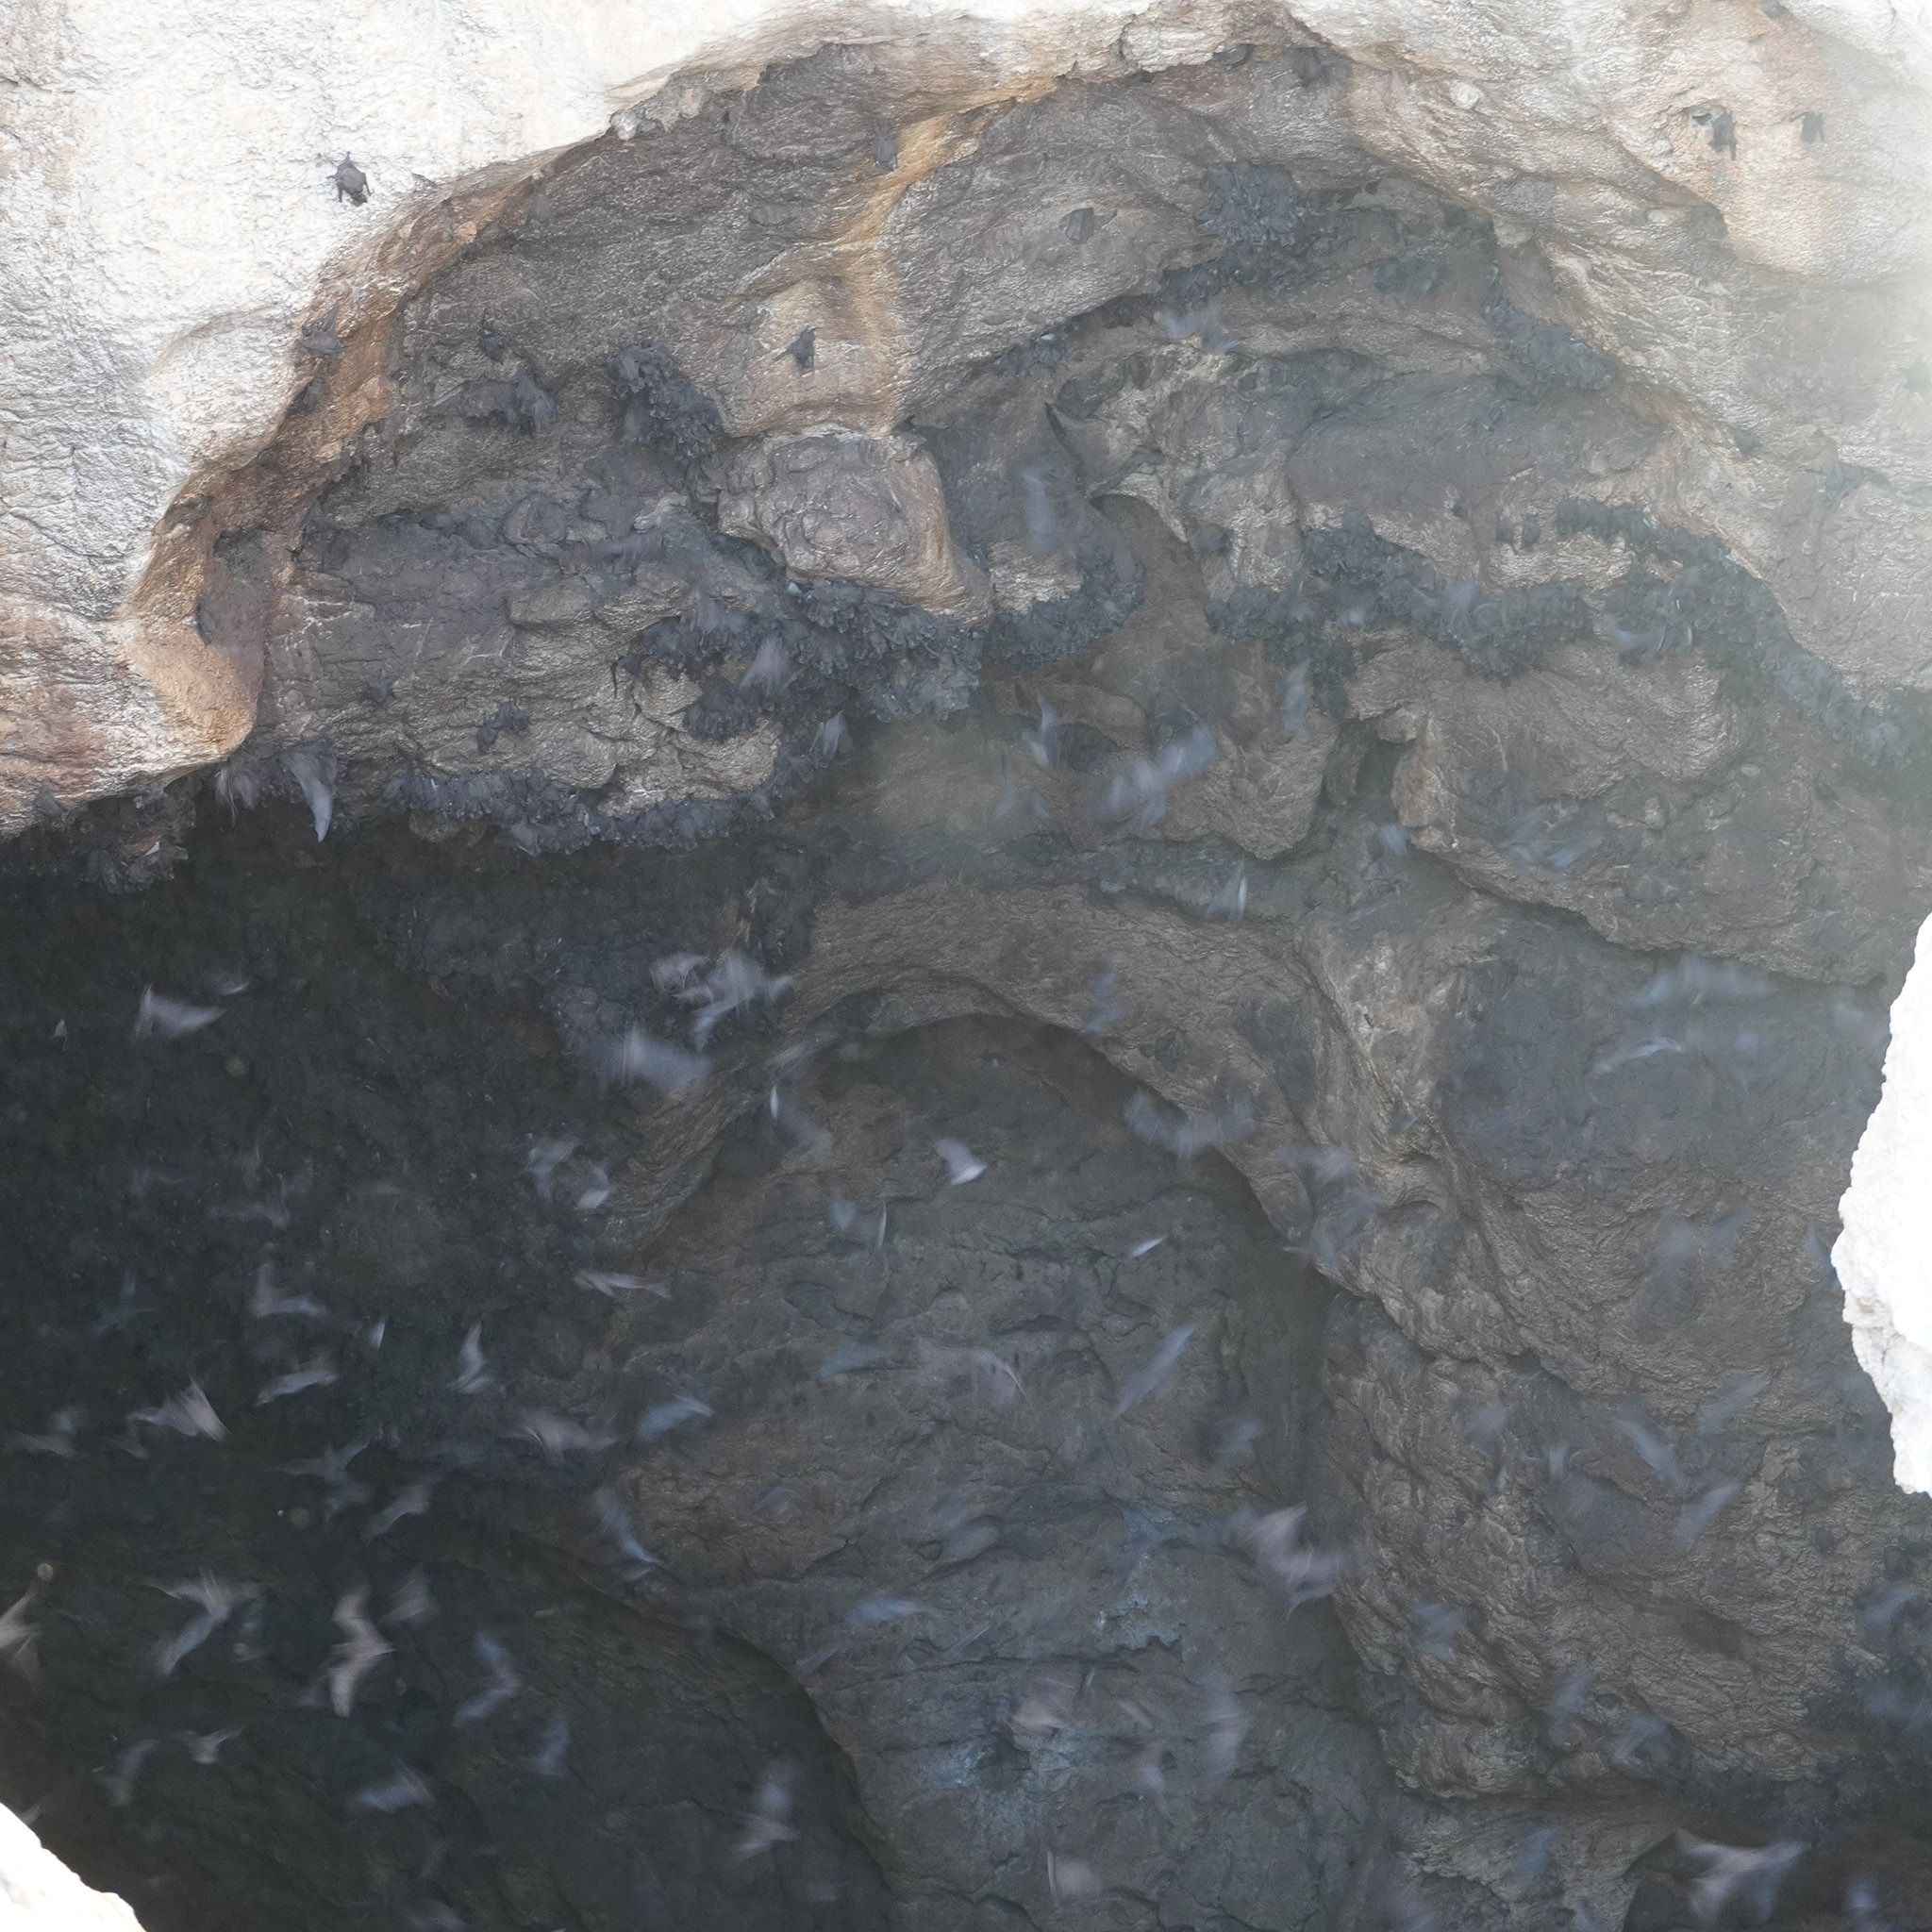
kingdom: Animalia
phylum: Chordata
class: Mammalia
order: Chiroptera
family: Molossidae
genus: Mops
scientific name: Mops
